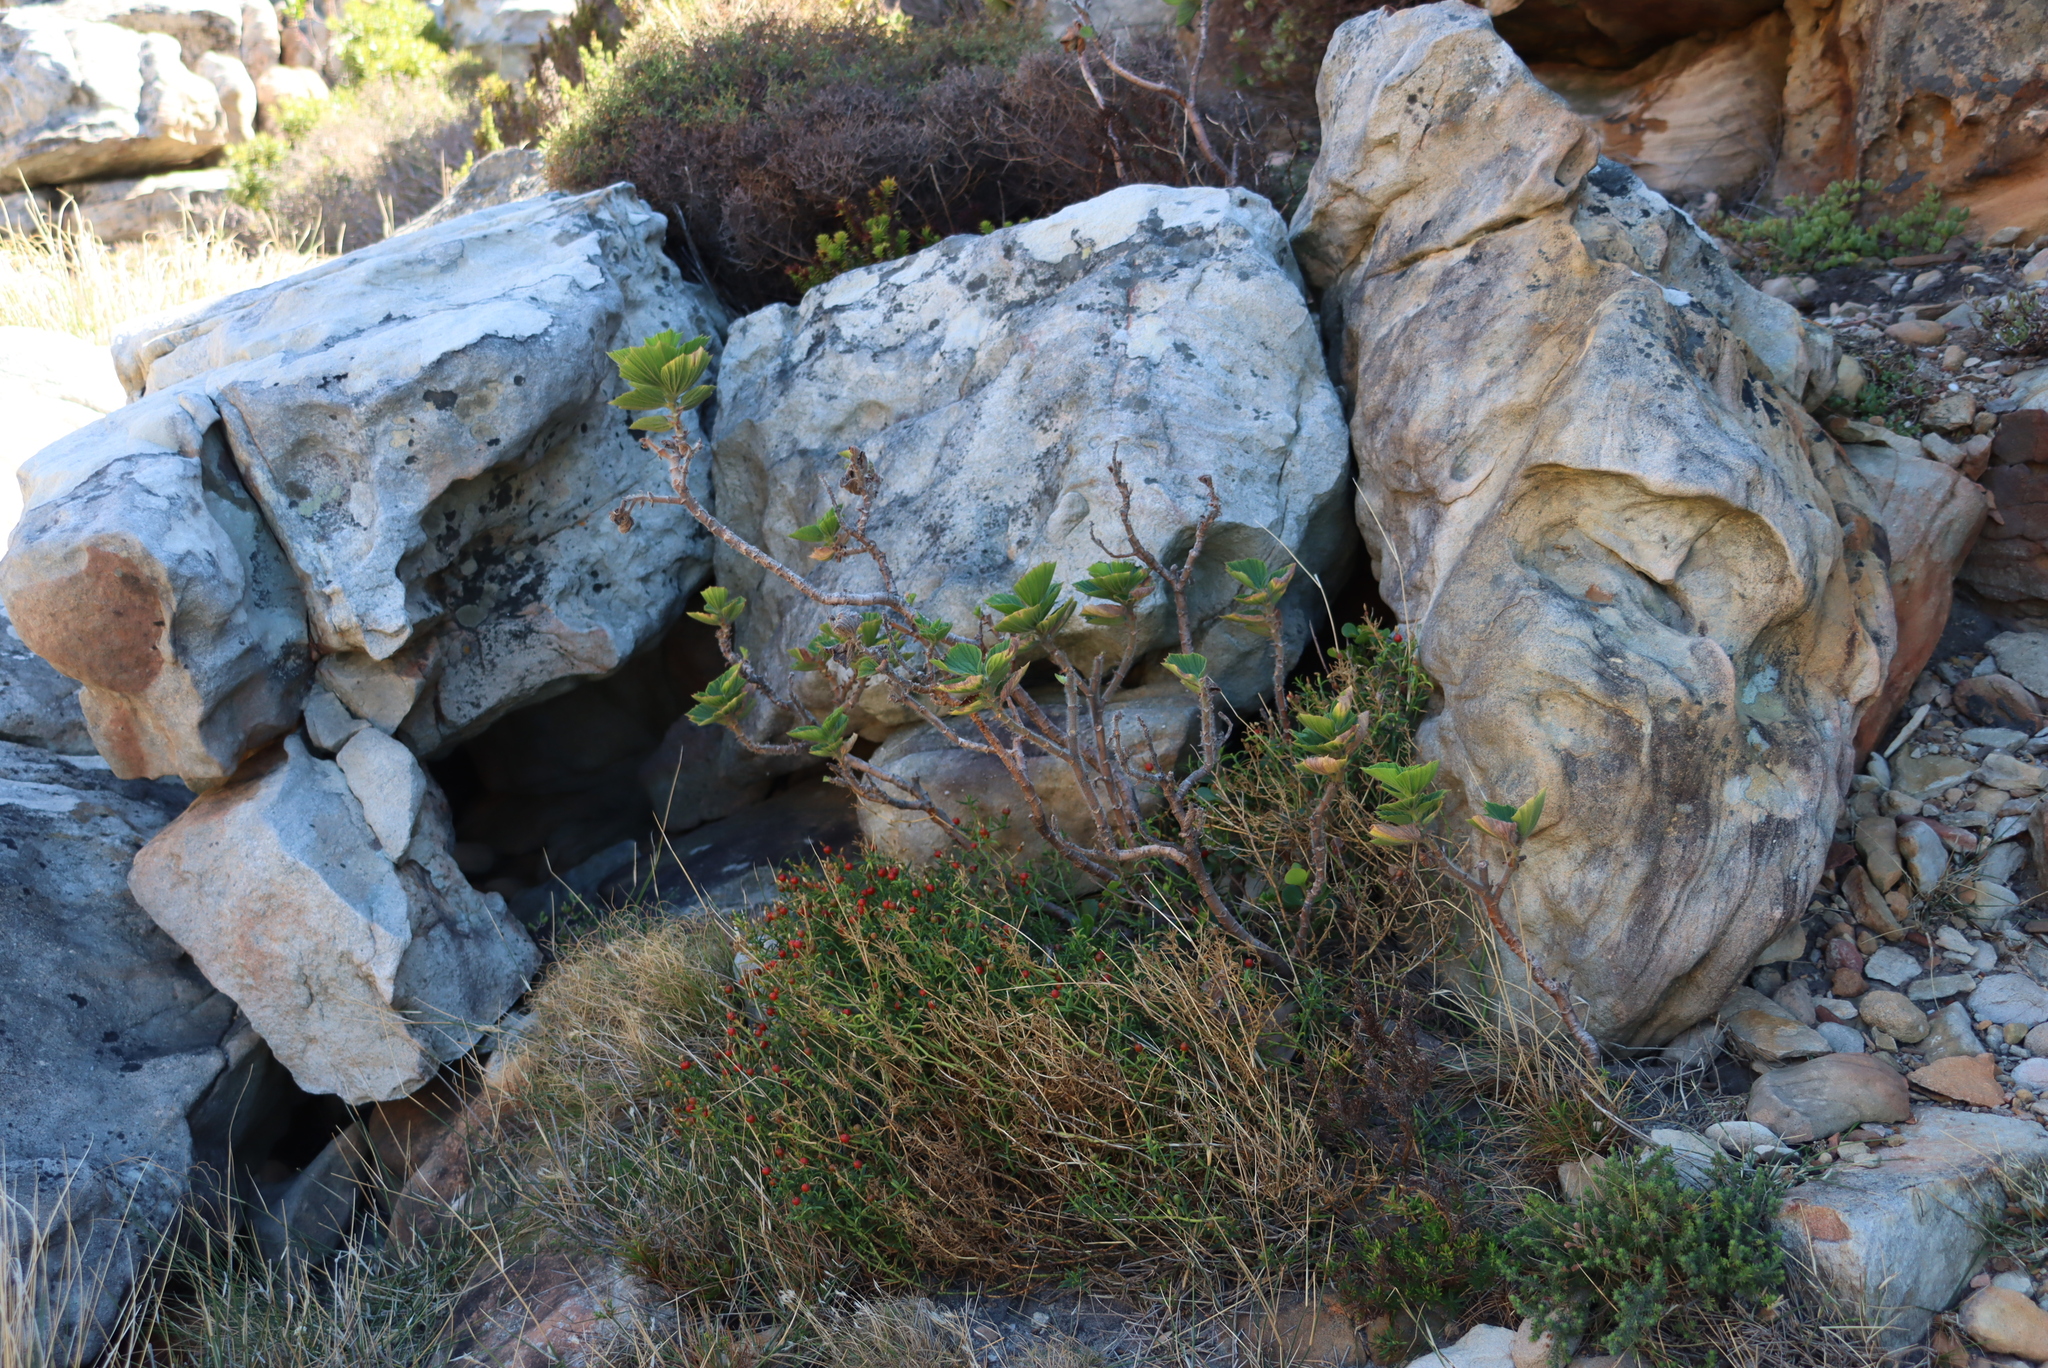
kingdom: Plantae
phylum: Tracheophyta
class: Magnoliopsida
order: Geraniales
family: Geraniaceae
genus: Pelargonium
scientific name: Pelargonium cucullatum
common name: Tree pelargonium
